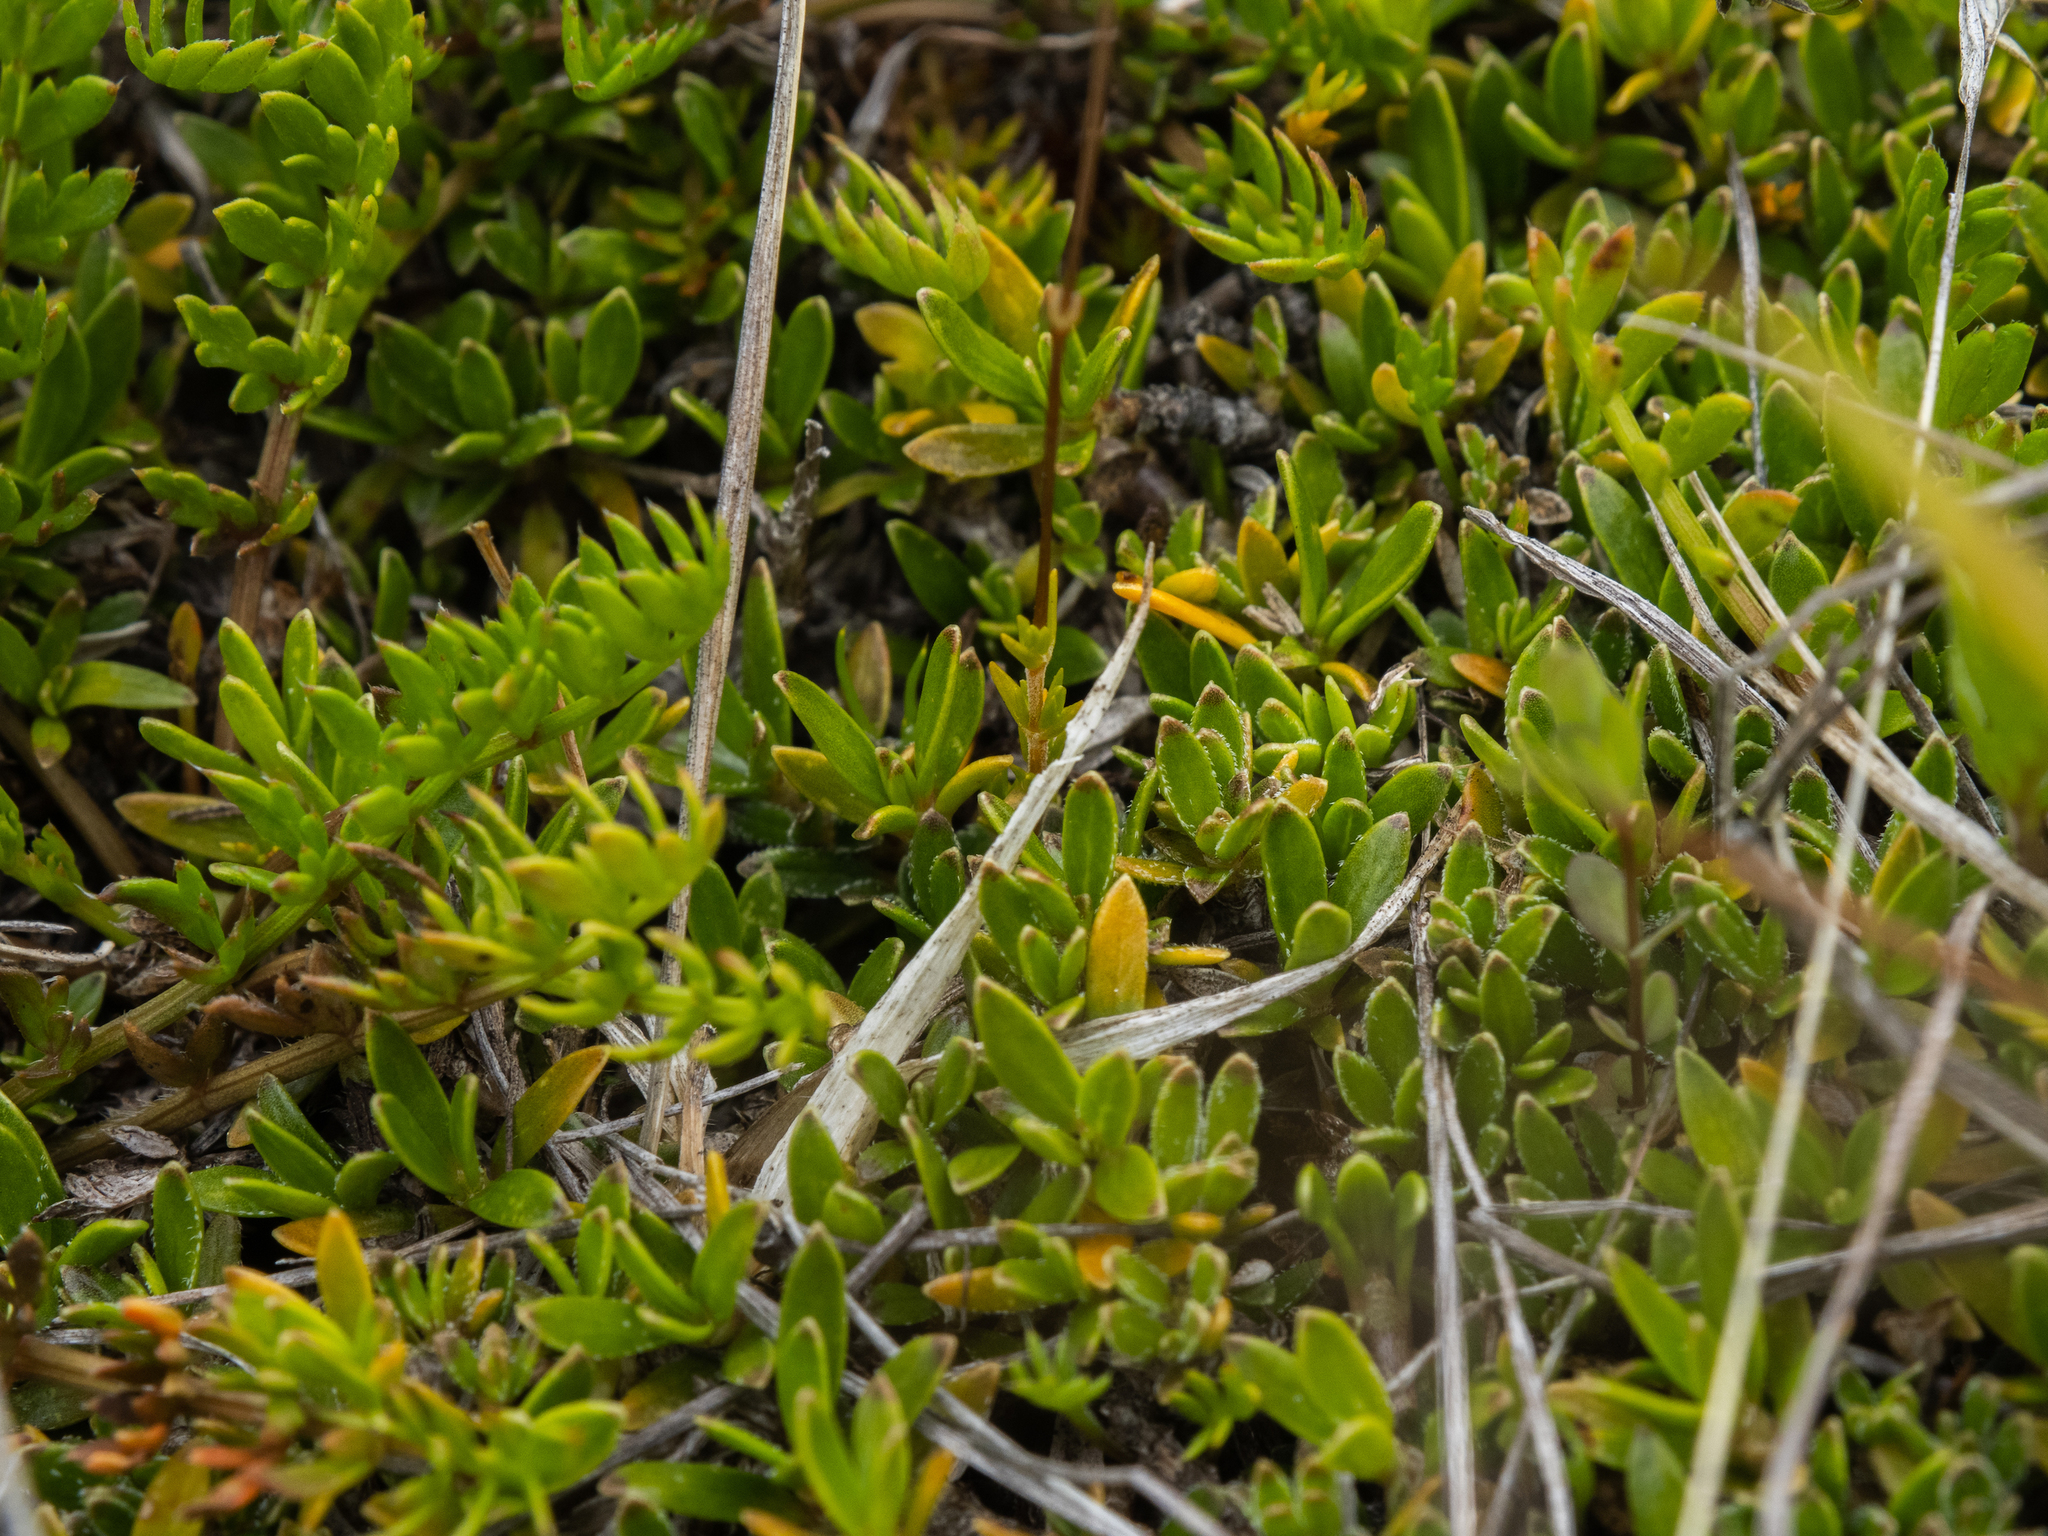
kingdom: Plantae
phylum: Tracheophyta
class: Magnoliopsida
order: Caryophyllales
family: Caryophyllaceae
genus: Stellaria
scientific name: Stellaria gracilenta
